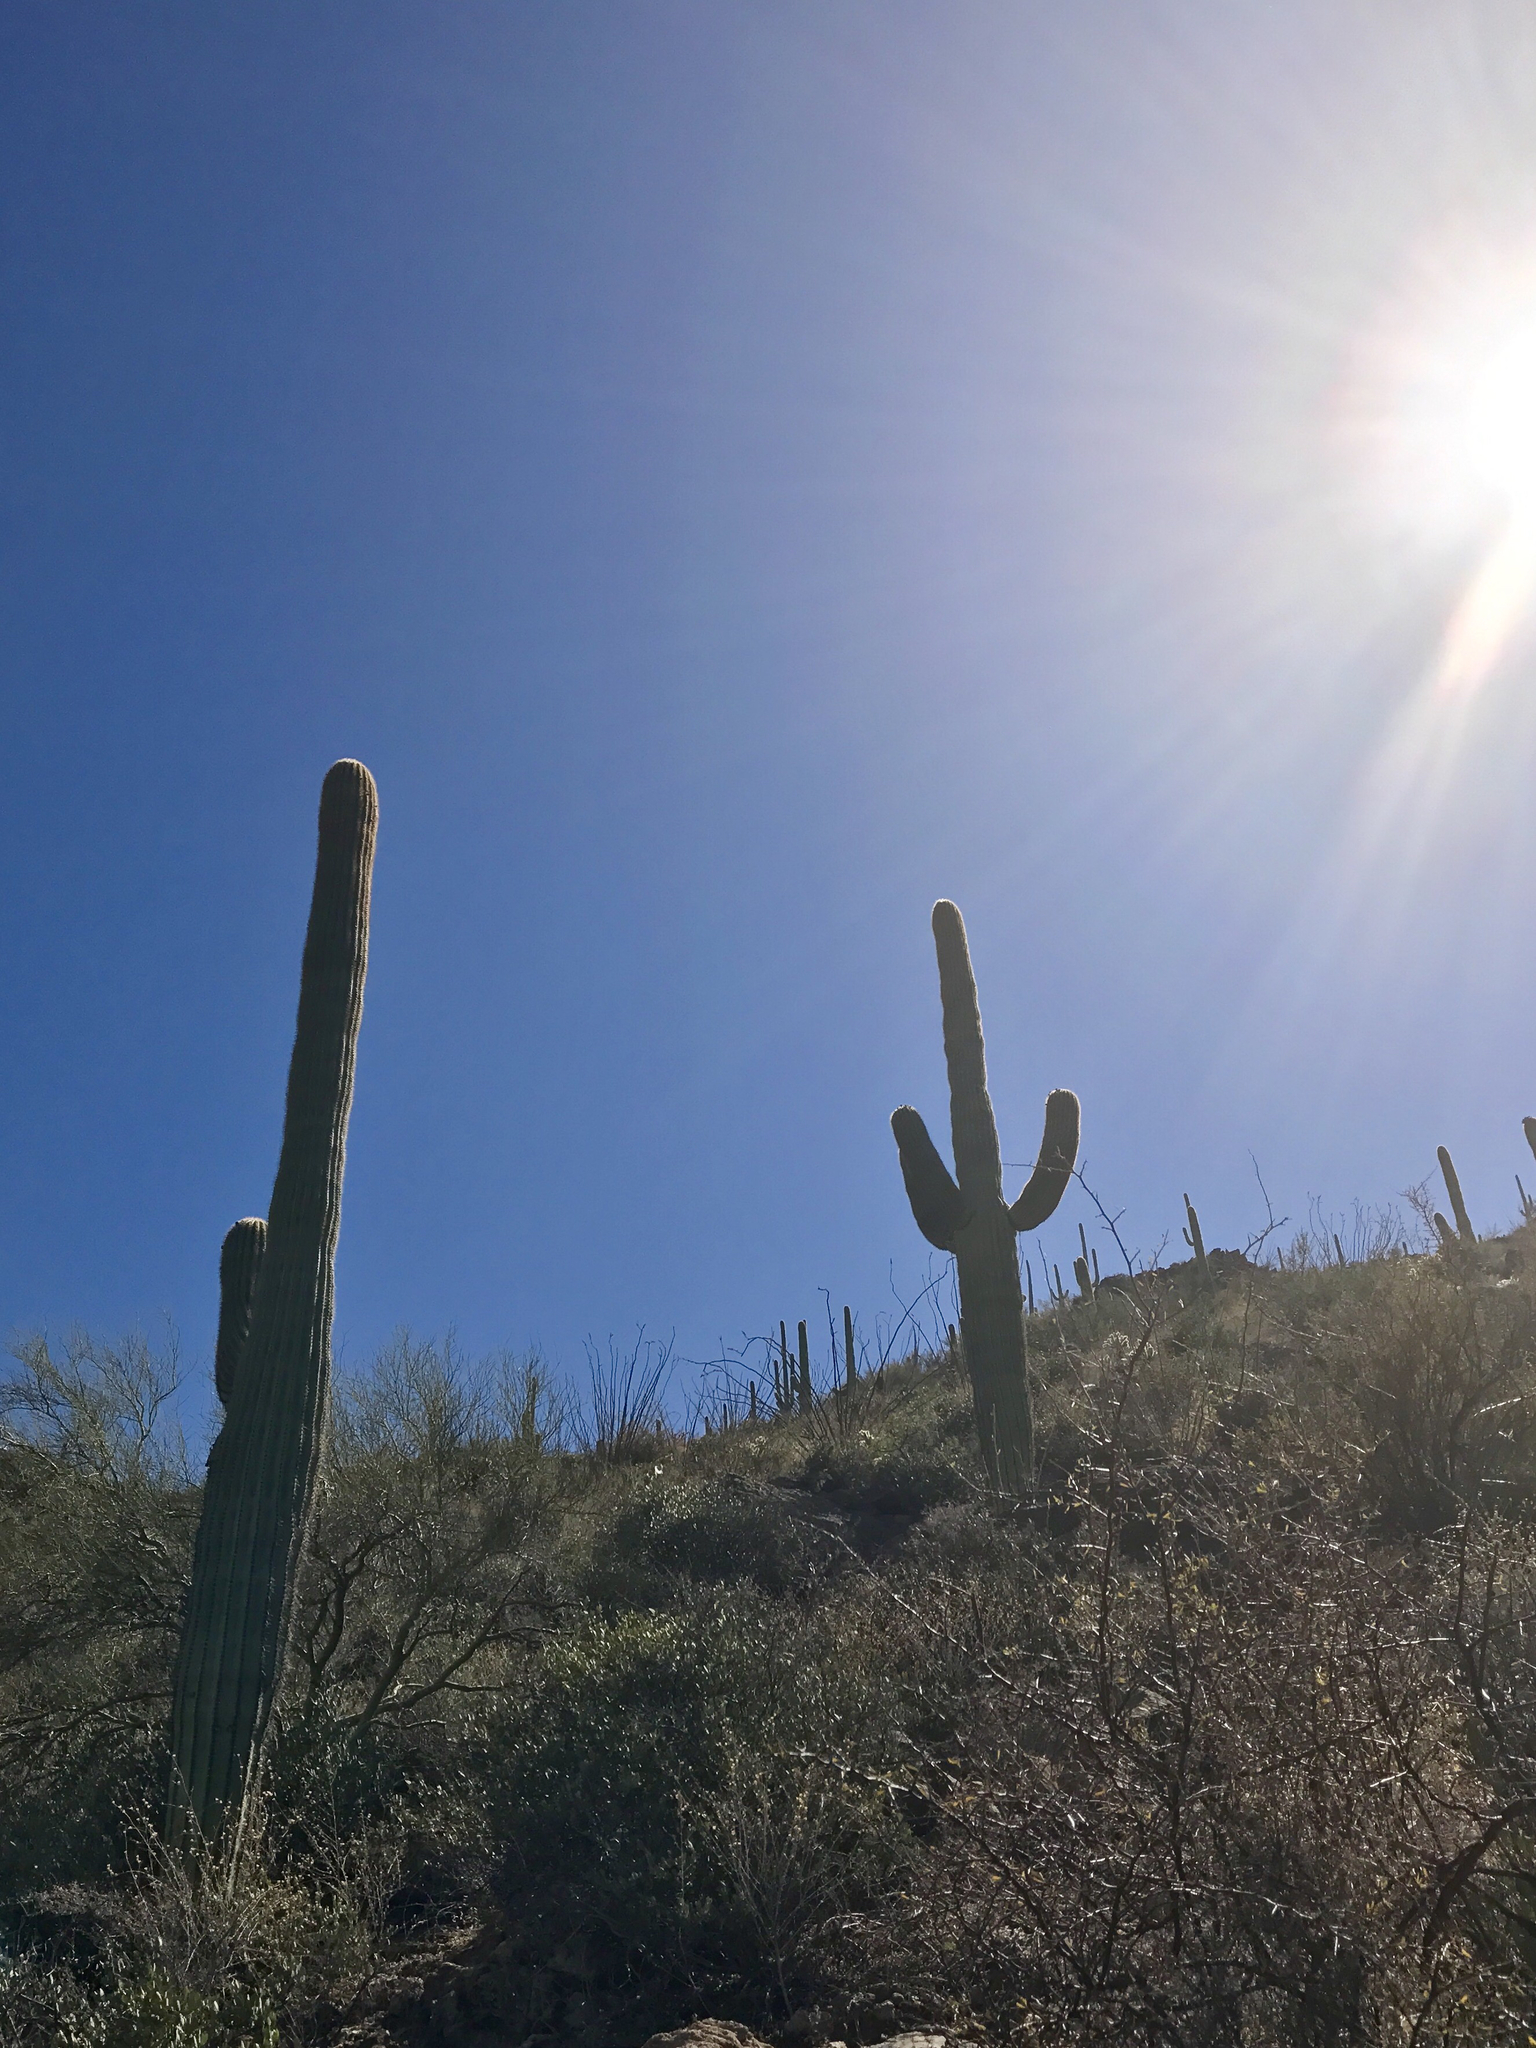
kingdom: Plantae
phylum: Tracheophyta
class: Magnoliopsida
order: Caryophyllales
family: Cactaceae
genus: Carnegiea
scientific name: Carnegiea gigantea
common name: Saguaro
